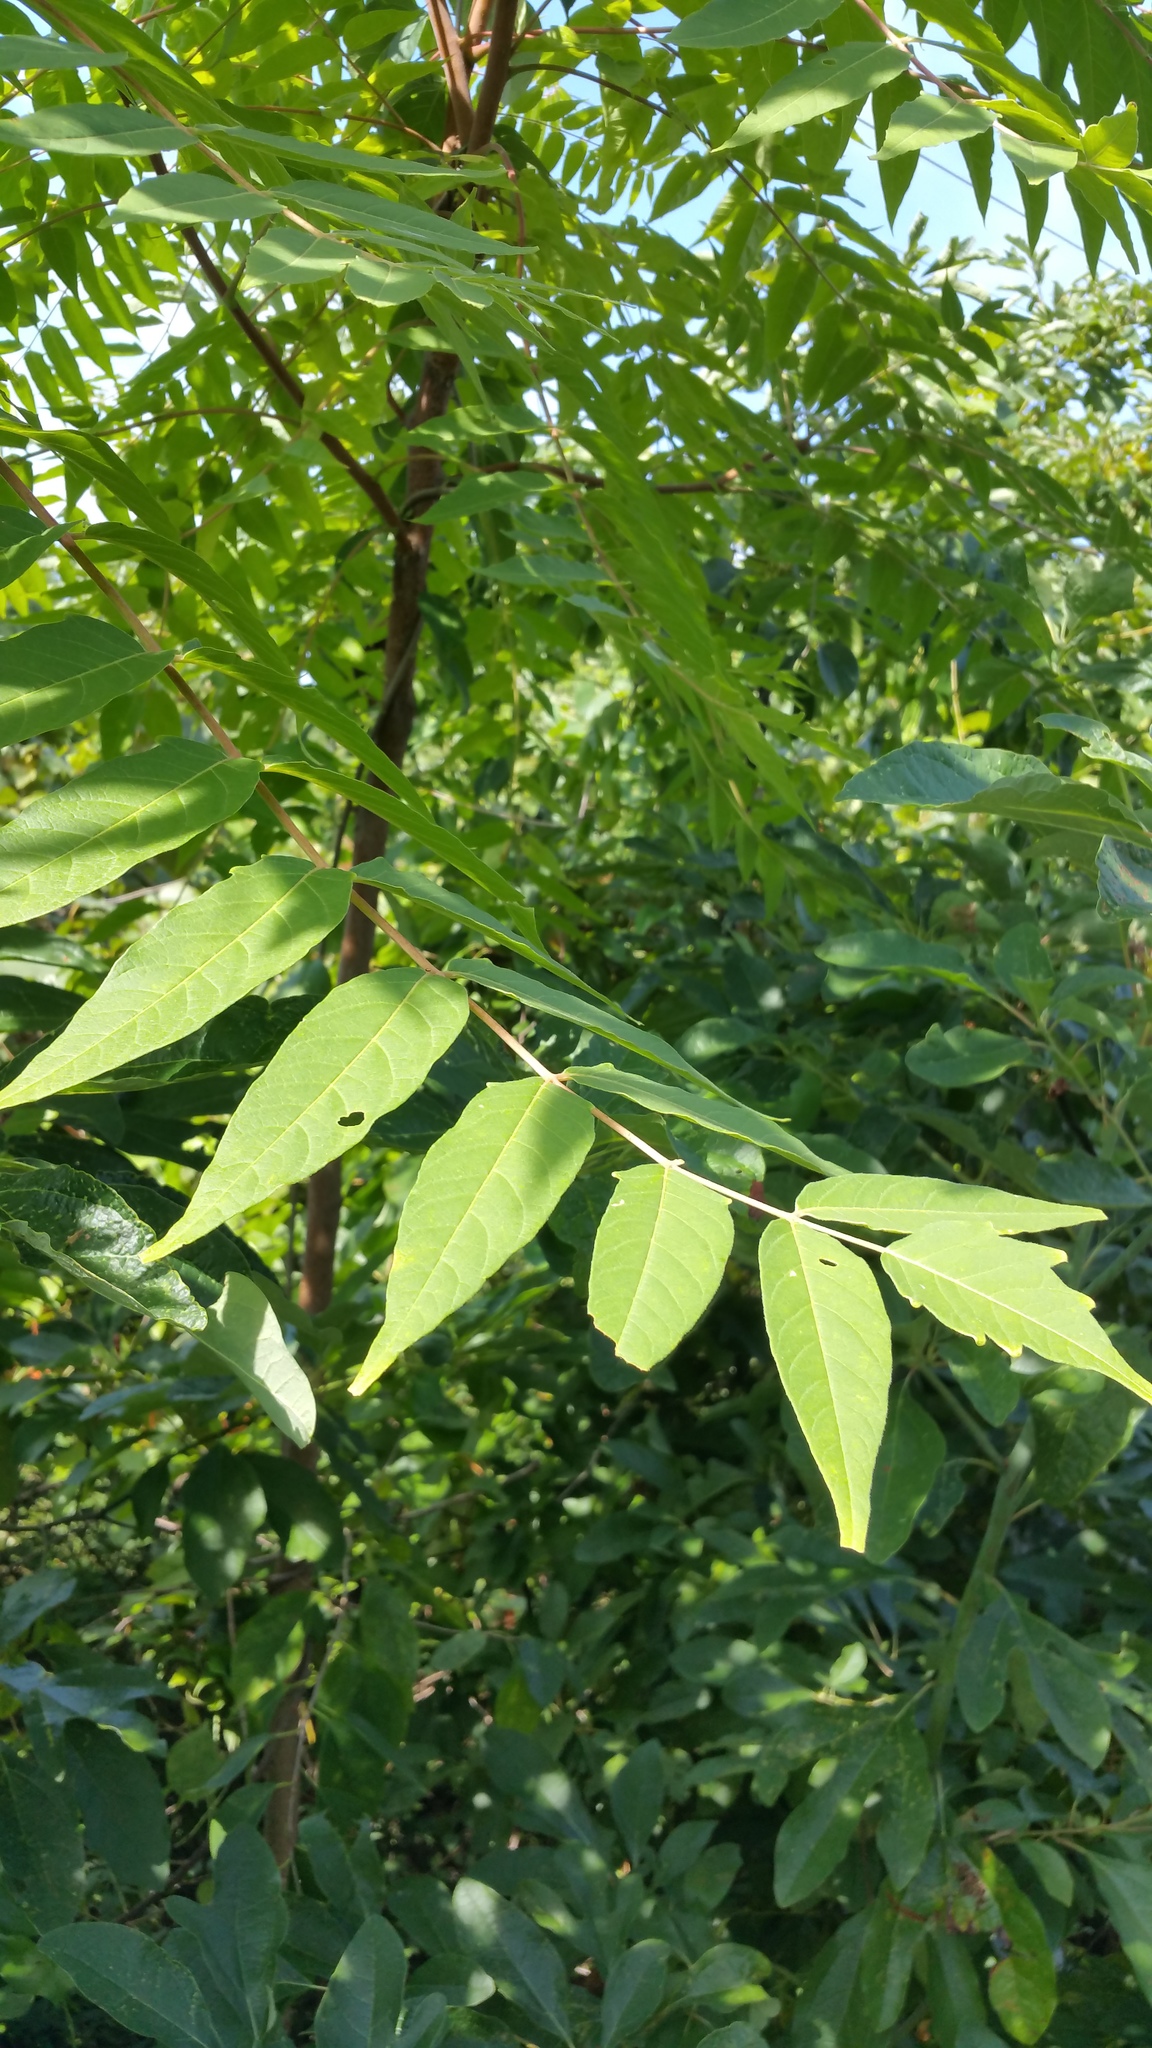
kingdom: Plantae
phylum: Tracheophyta
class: Magnoliopsida
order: Sapindales
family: Simaroubaceae
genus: Ailanthus
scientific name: Ailanthus altissima
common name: Tree-of-heaven
